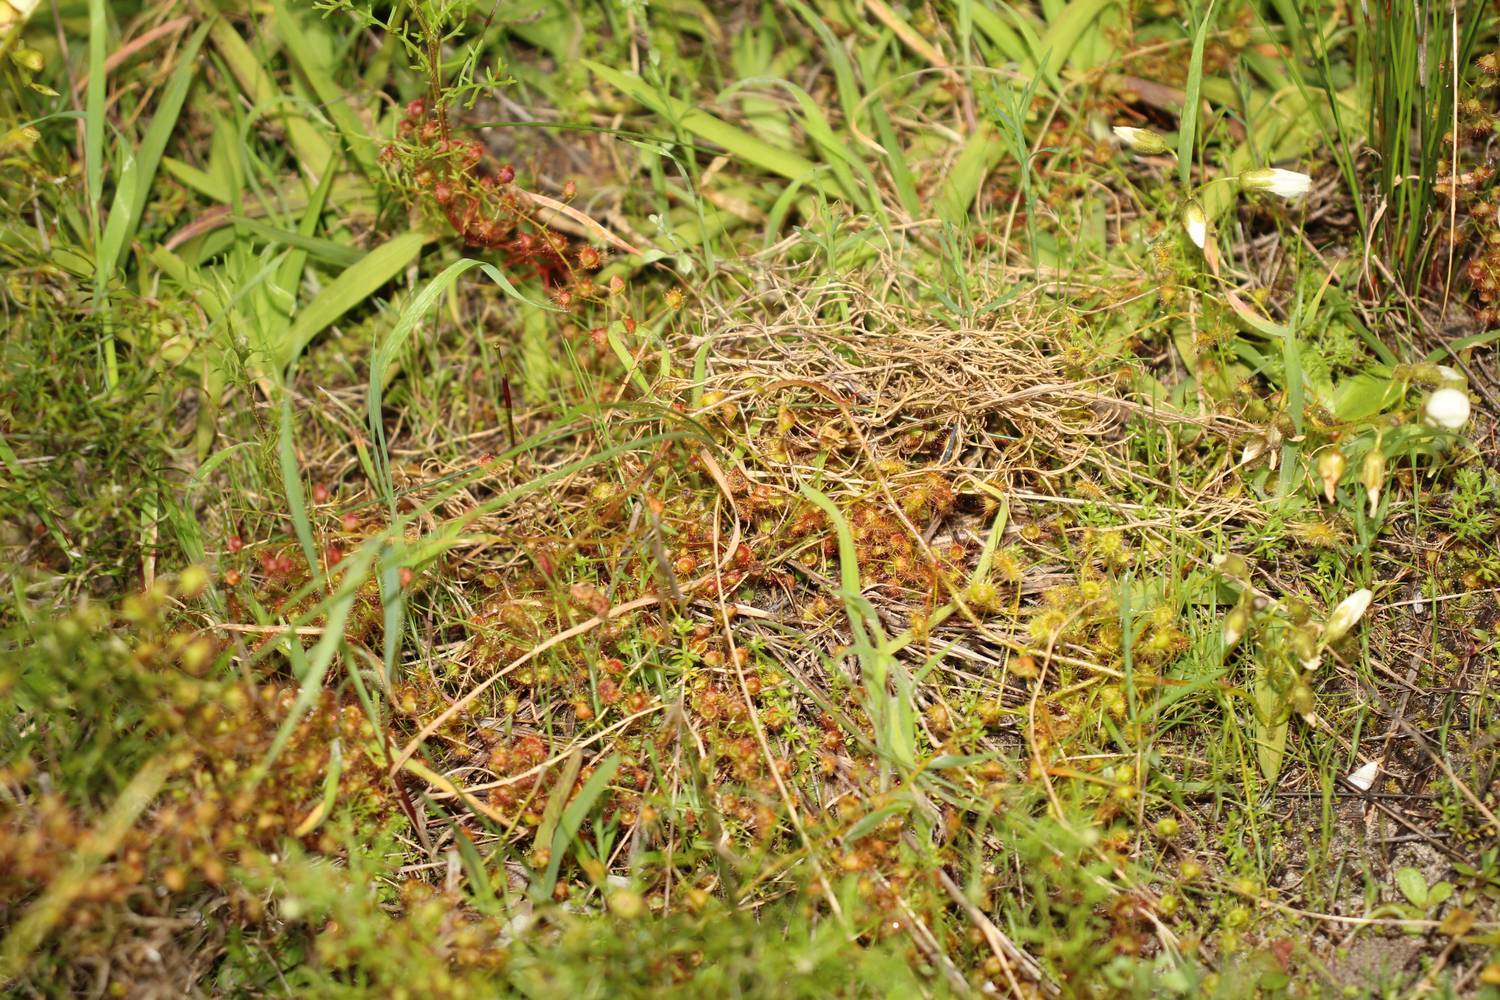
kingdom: Plantae
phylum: Tracheophyta
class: Magnoliopsida
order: Caryophyllales
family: Droseraceae
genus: Drosera
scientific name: Drosera macrantha
